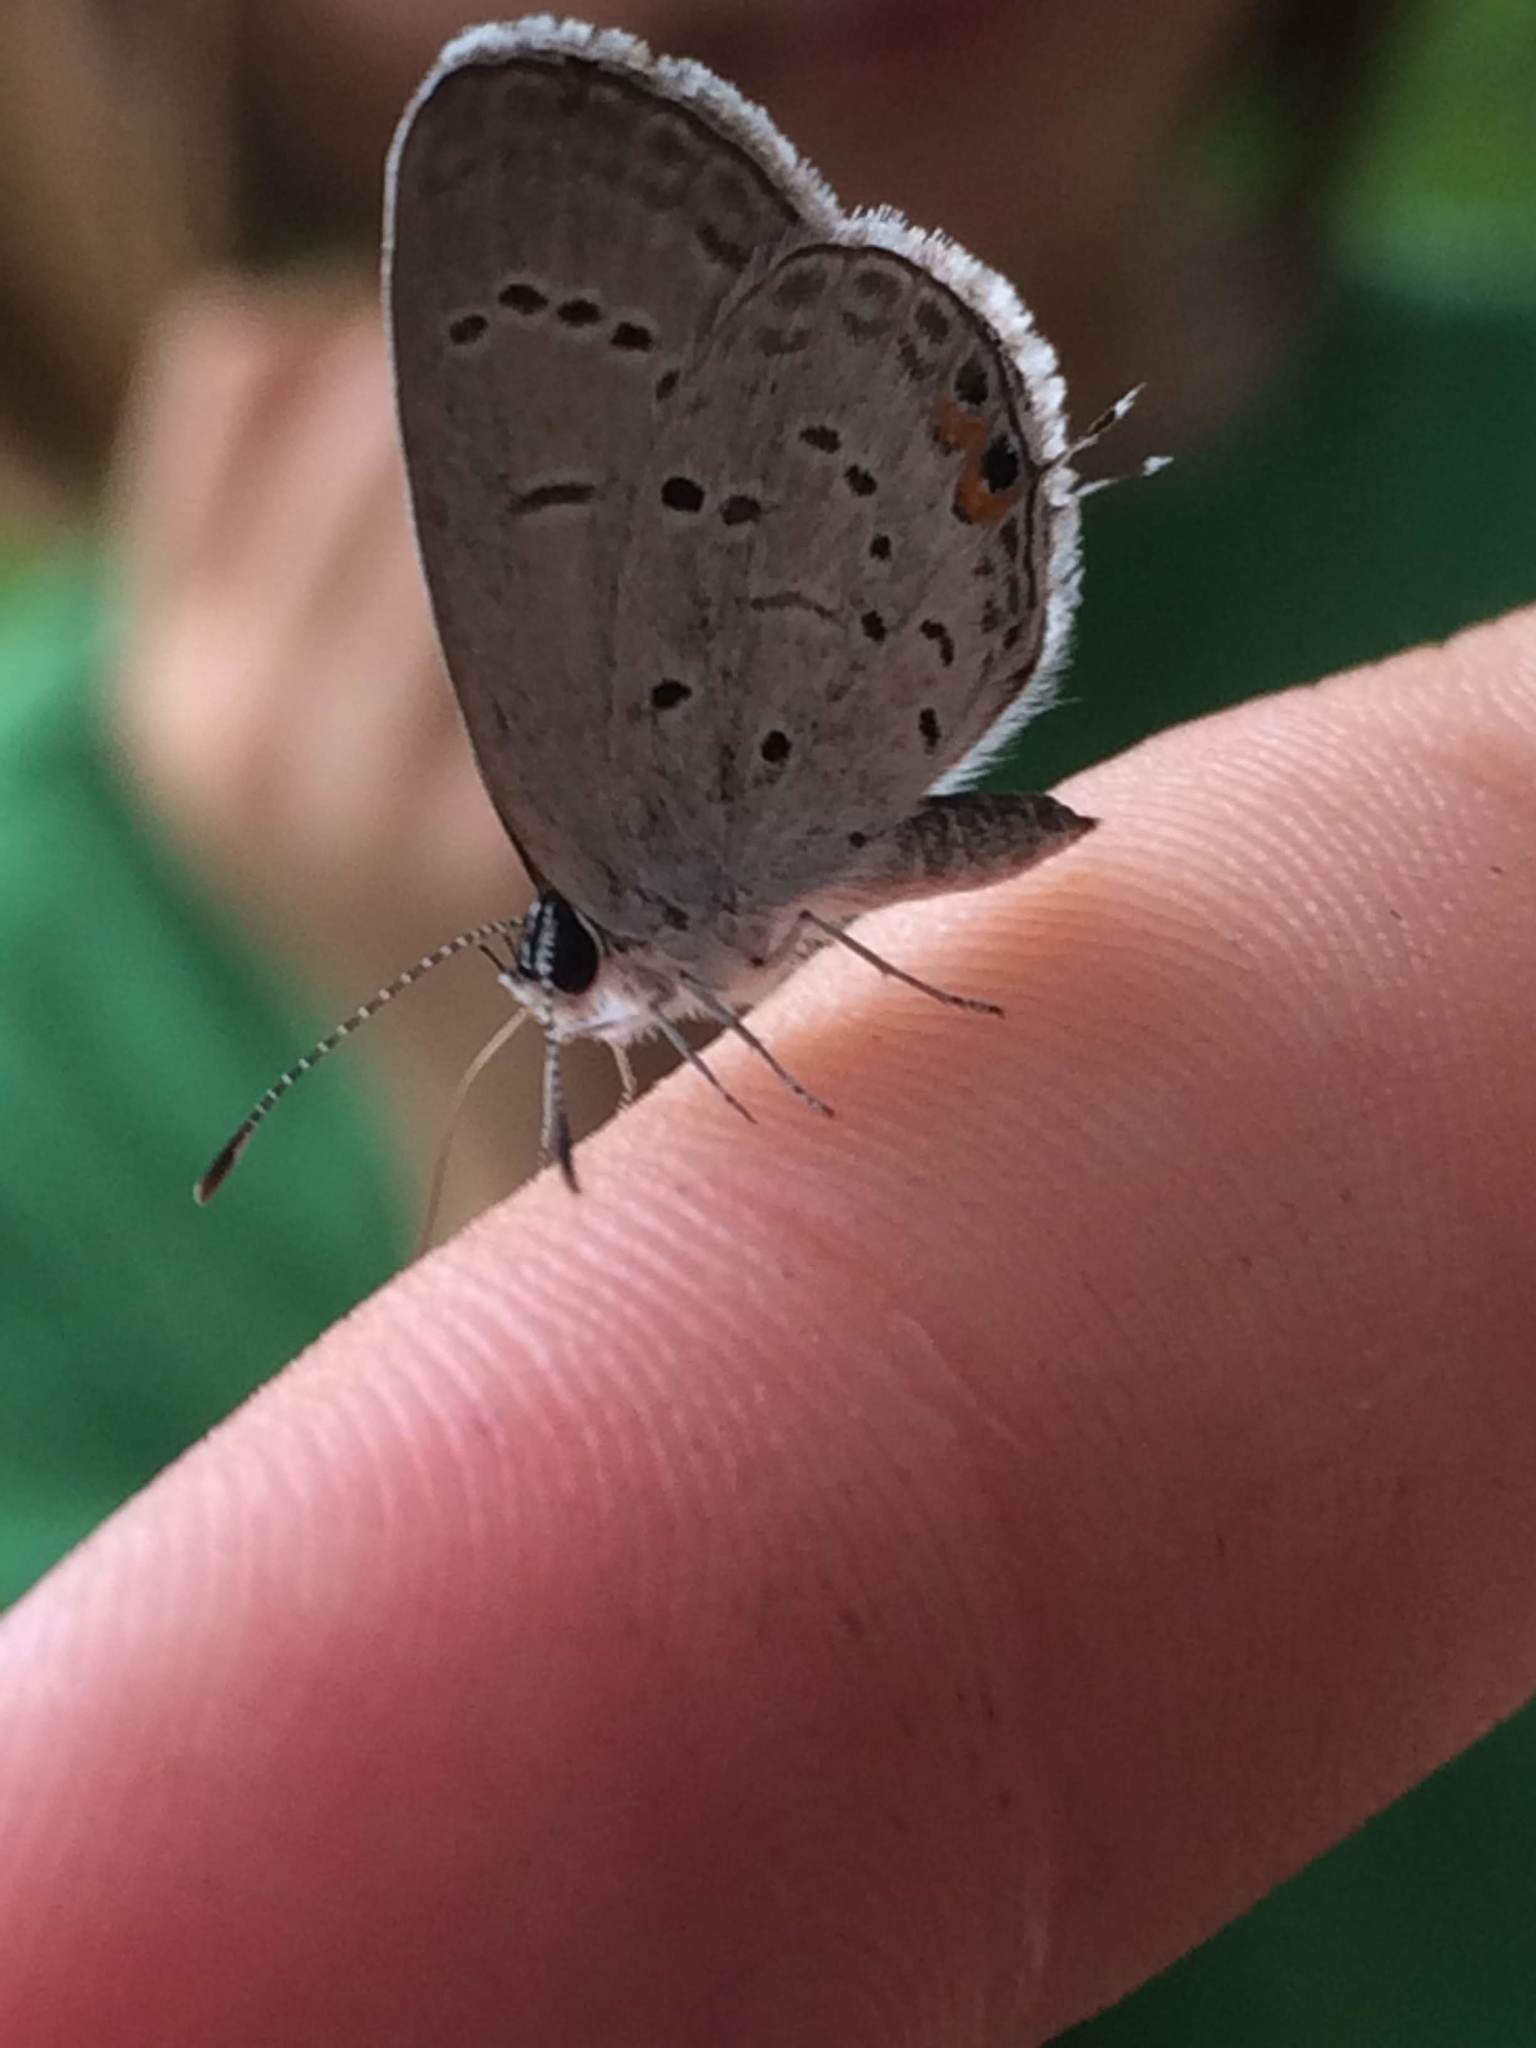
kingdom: Animalia
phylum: Arthropoda
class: Insecta
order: Lepidoptera
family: Lycaenidae
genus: Elkalyce
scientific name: Elkalyce comyntas
